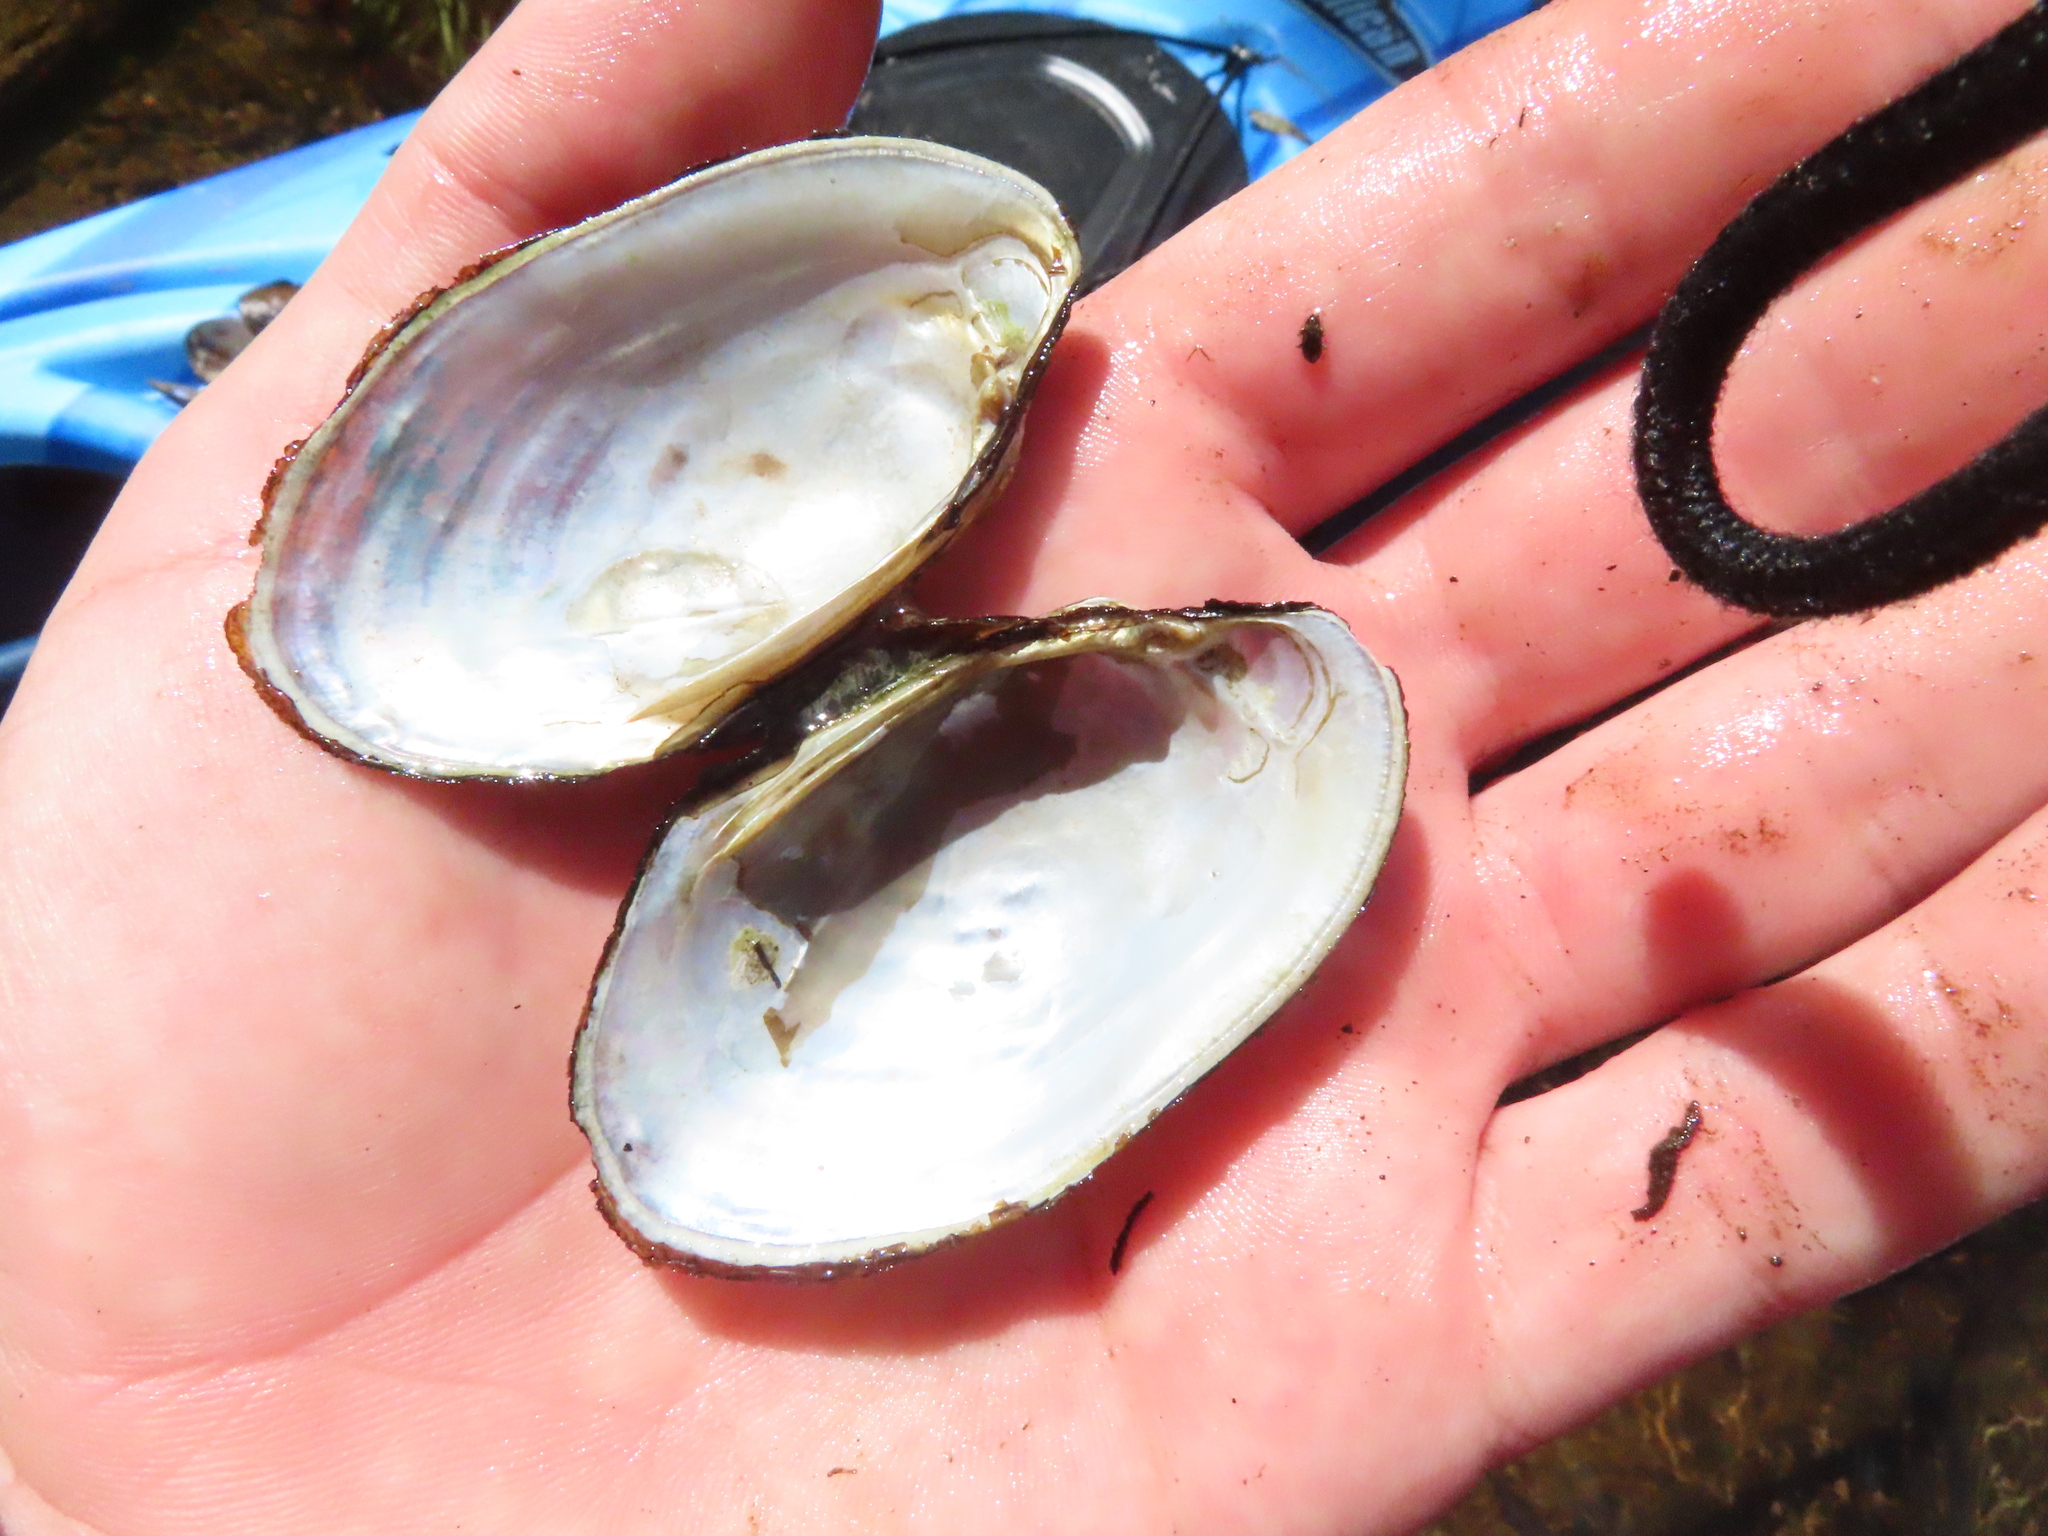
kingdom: Animalia
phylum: Mollusca
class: Bivalvia
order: Unionida
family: Unionidae
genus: Lampsilis
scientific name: Lampsilis siliquoidea
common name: Fatmucket
